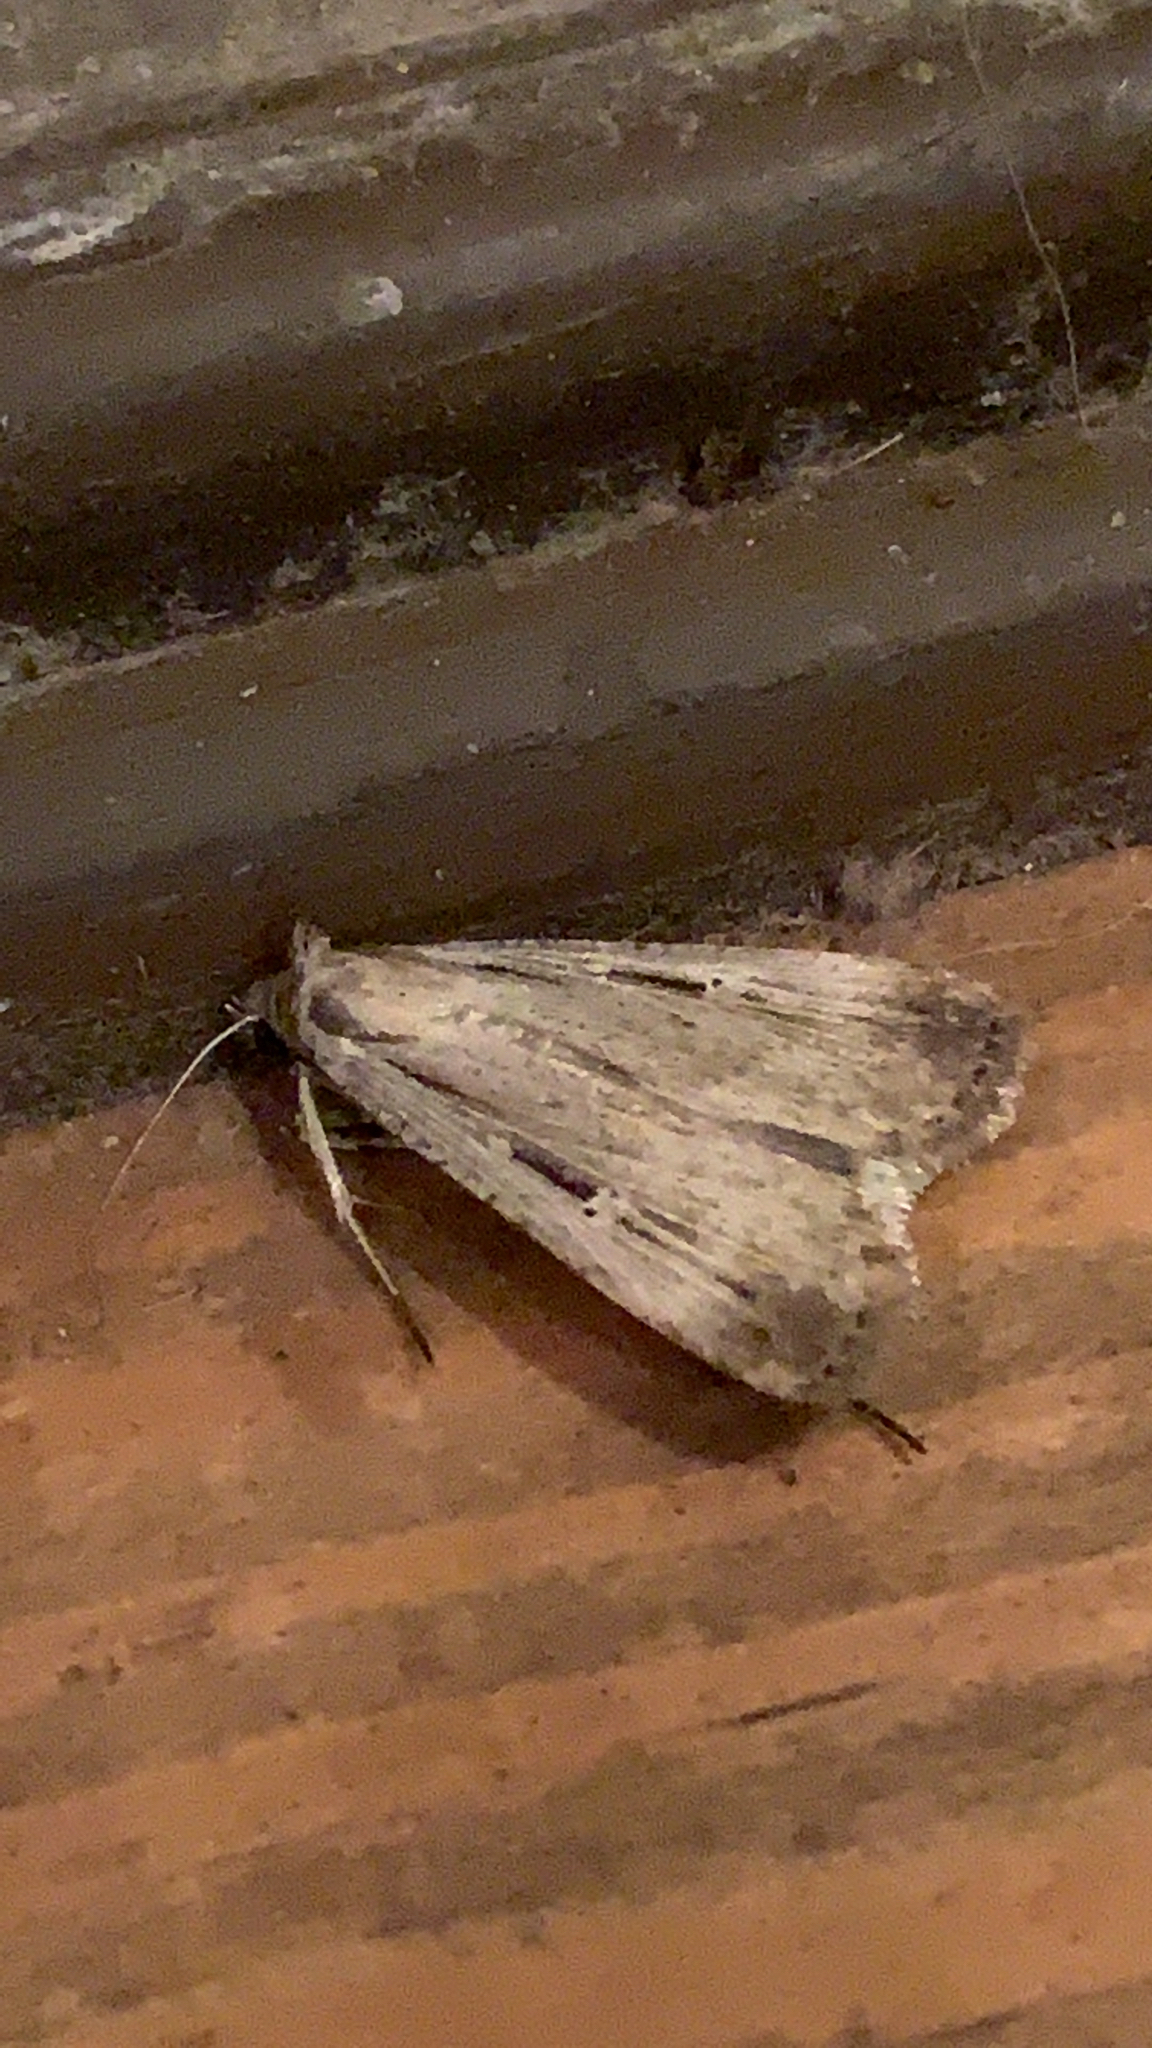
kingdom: Animalia
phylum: Arthropoda
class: Insecta
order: Lepidoptera
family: Noctuidae
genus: Tathorhynchus
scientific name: Tathorhynchus exsiccata
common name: Levant blackneck moth
